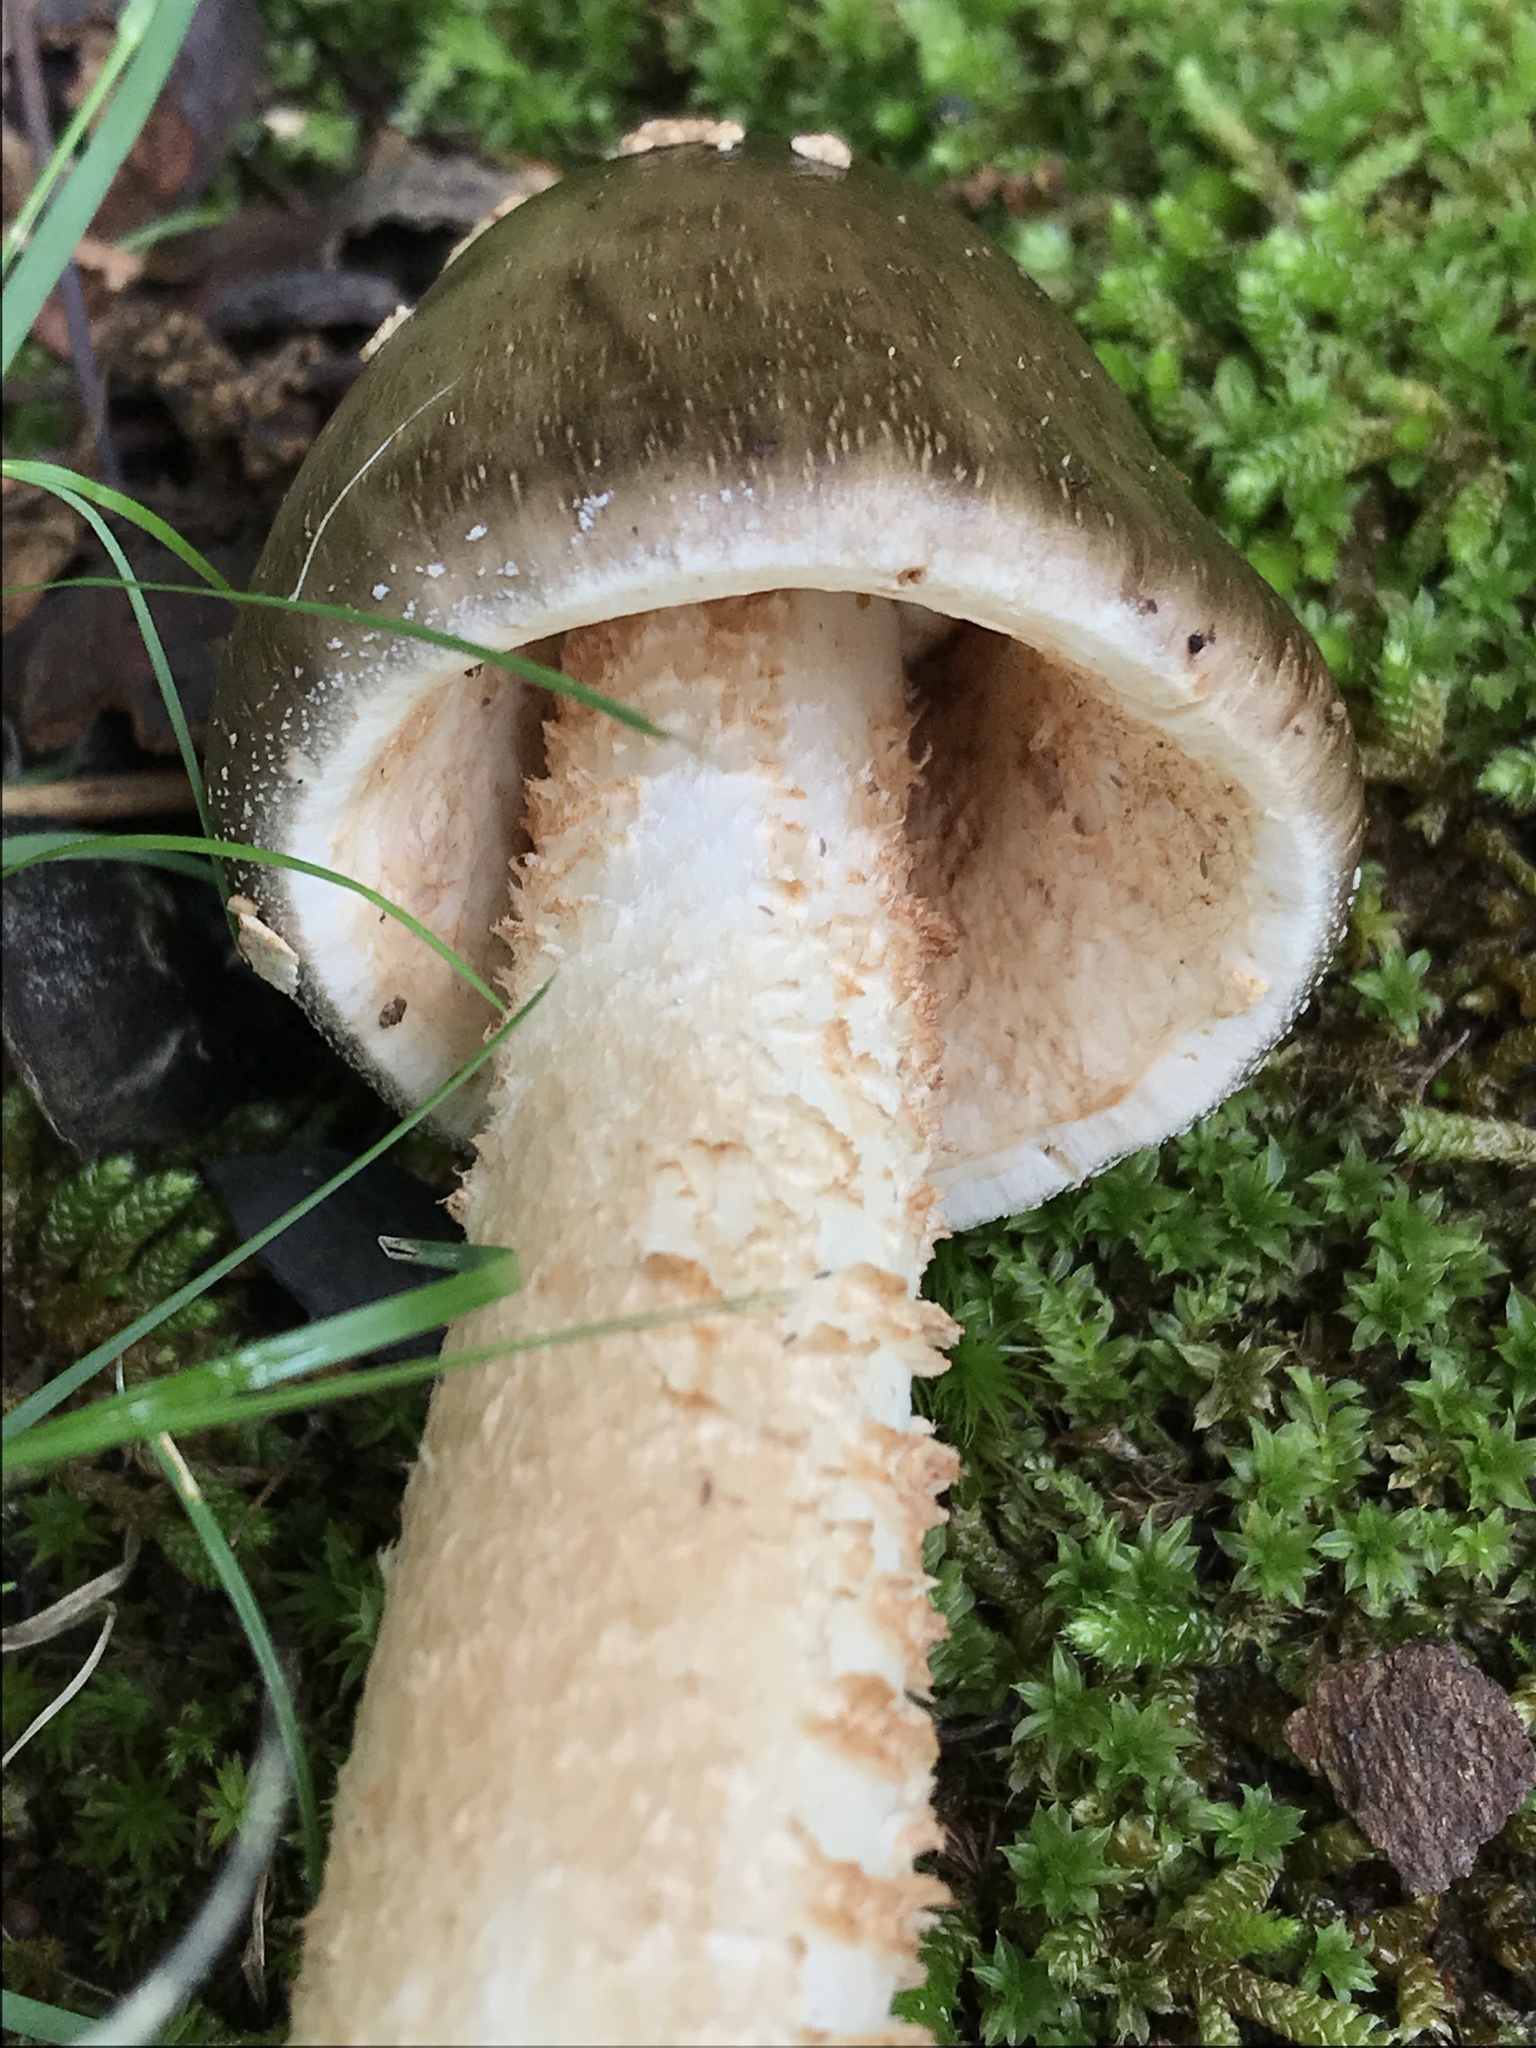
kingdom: Fungi
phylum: Basidiomycota
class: Agaricomycetes
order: Agaricales
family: Amanitaceae
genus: Amanita
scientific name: Amanita brunnescens
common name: Brown american star-footed amanita
